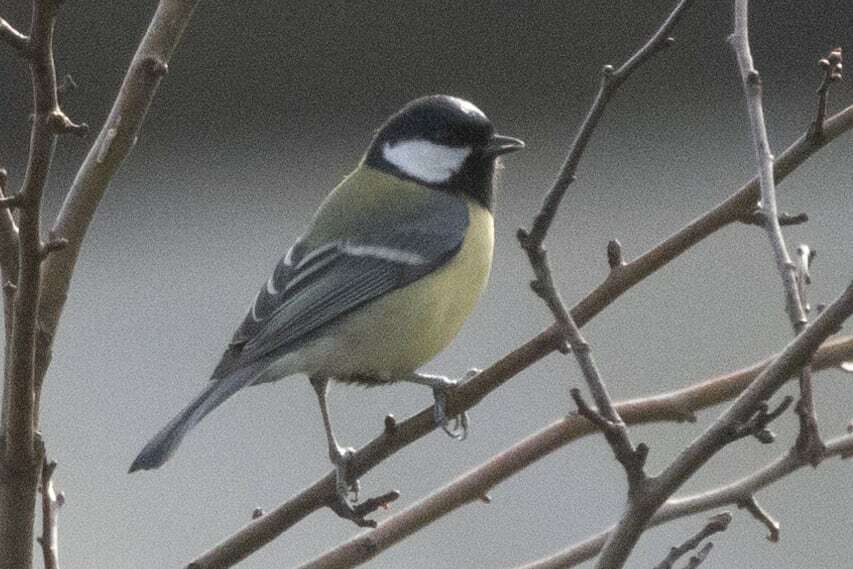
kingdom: Animalia
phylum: Chordata
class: Aves
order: Passeriformes
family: Paridae
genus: Parus
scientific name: Parus major
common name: Great tit
